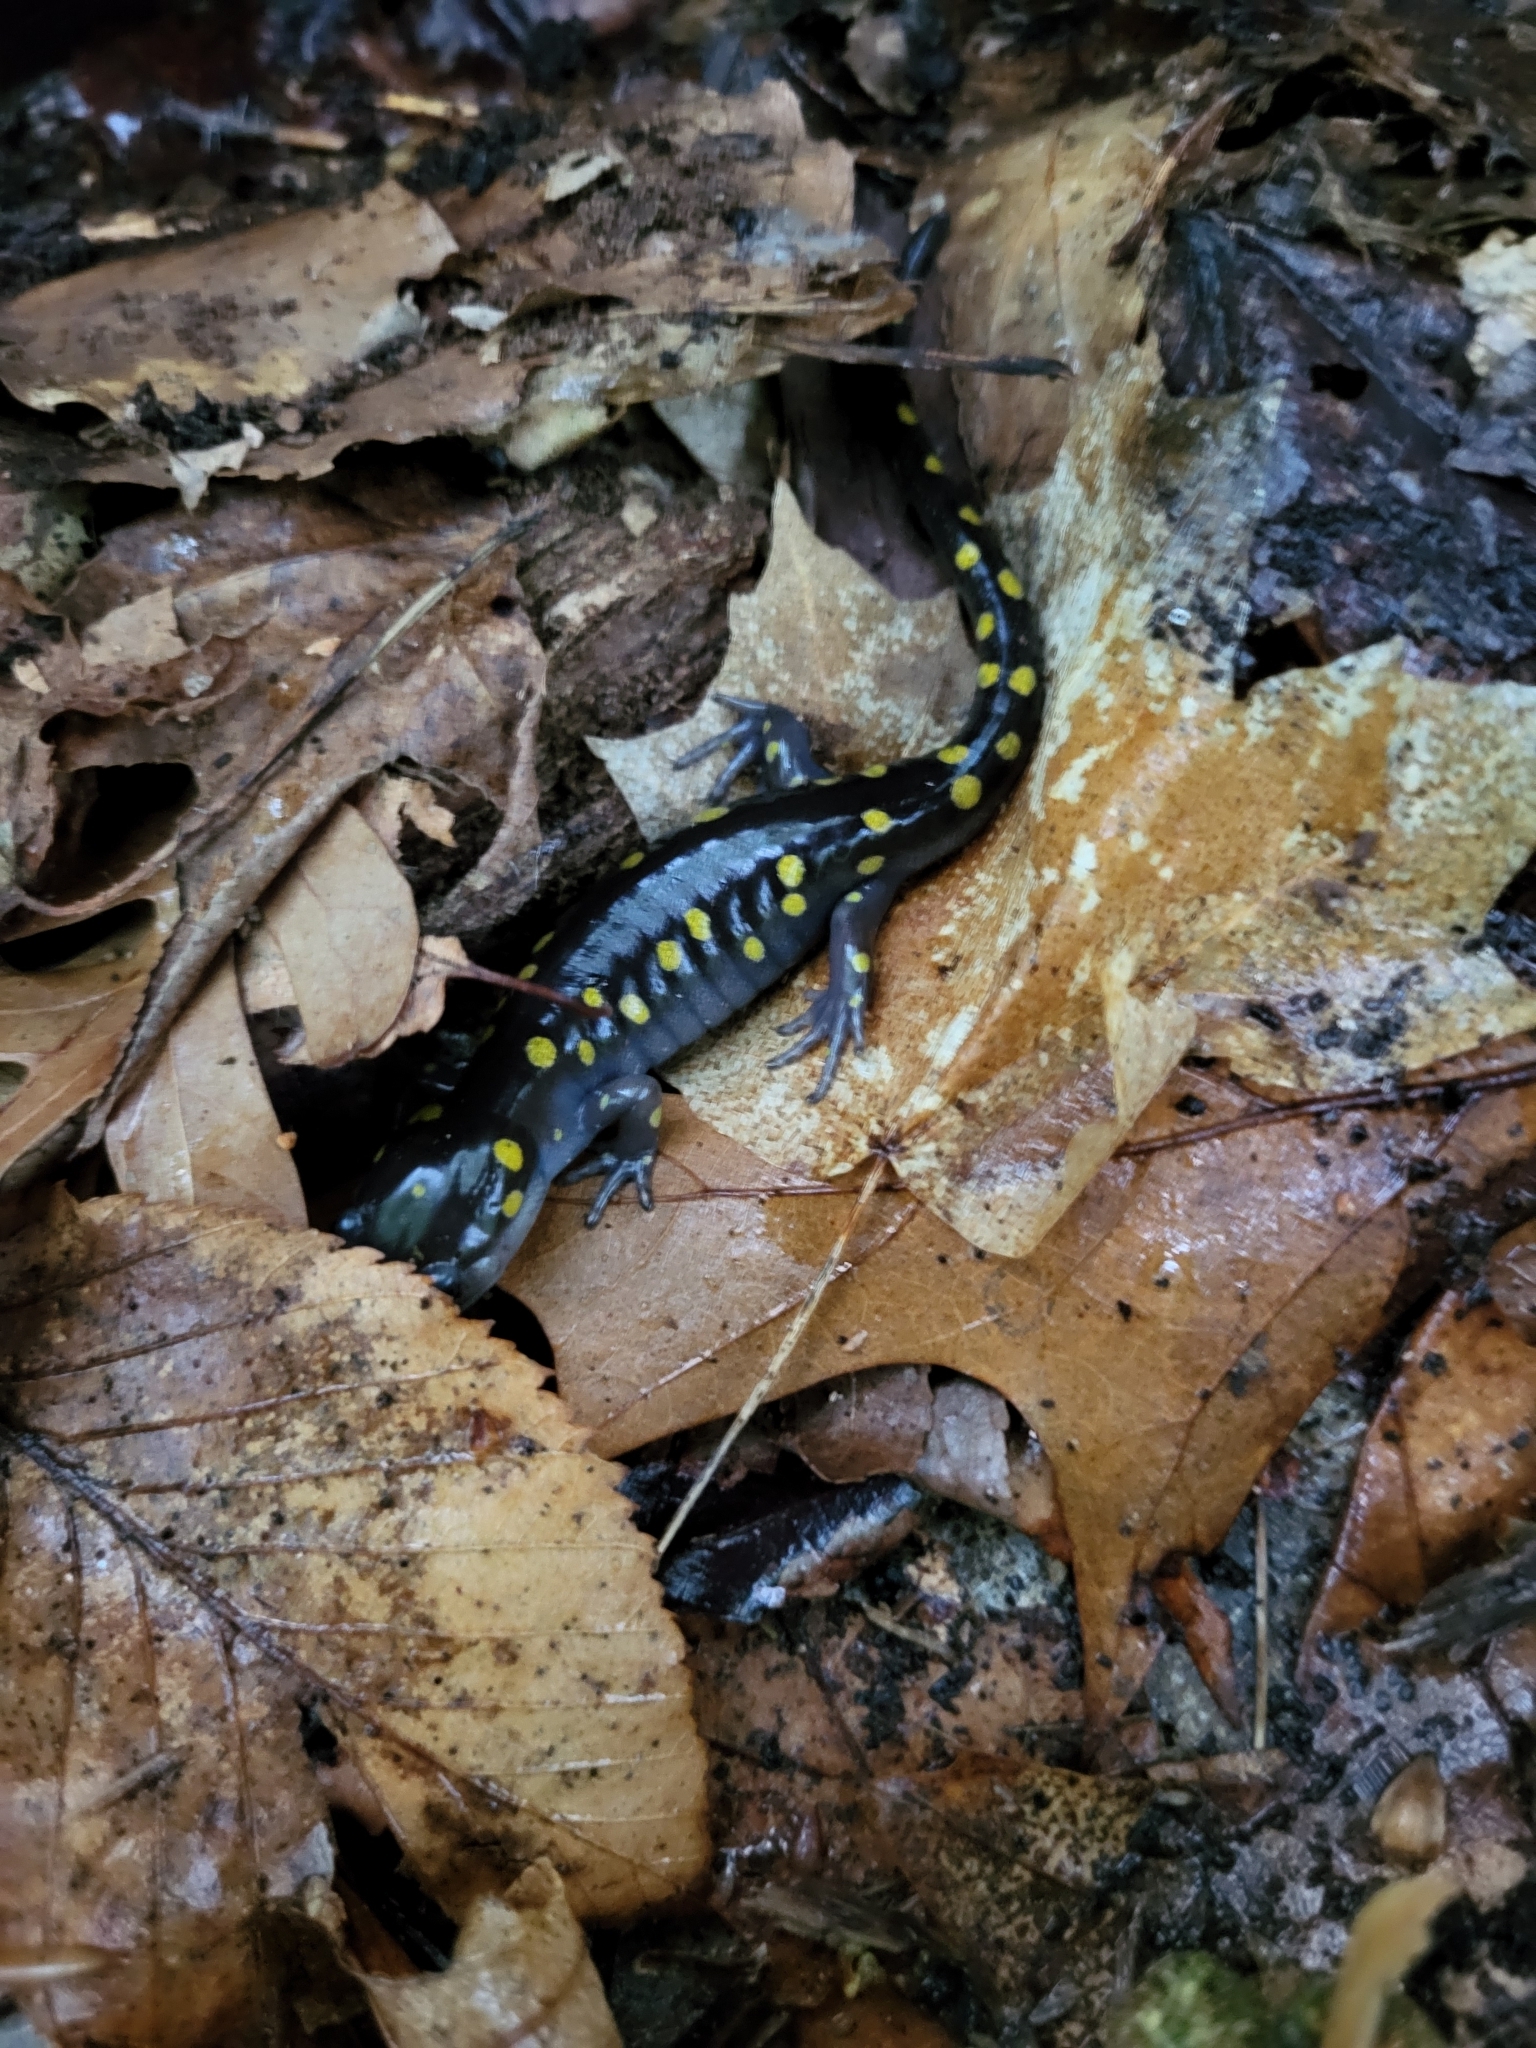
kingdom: Animalia
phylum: Chordata
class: Amphibia
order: Caudata
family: Ambystomatidae
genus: Ambystoma
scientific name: Ambystoma maculatum
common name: Spotted salamander
